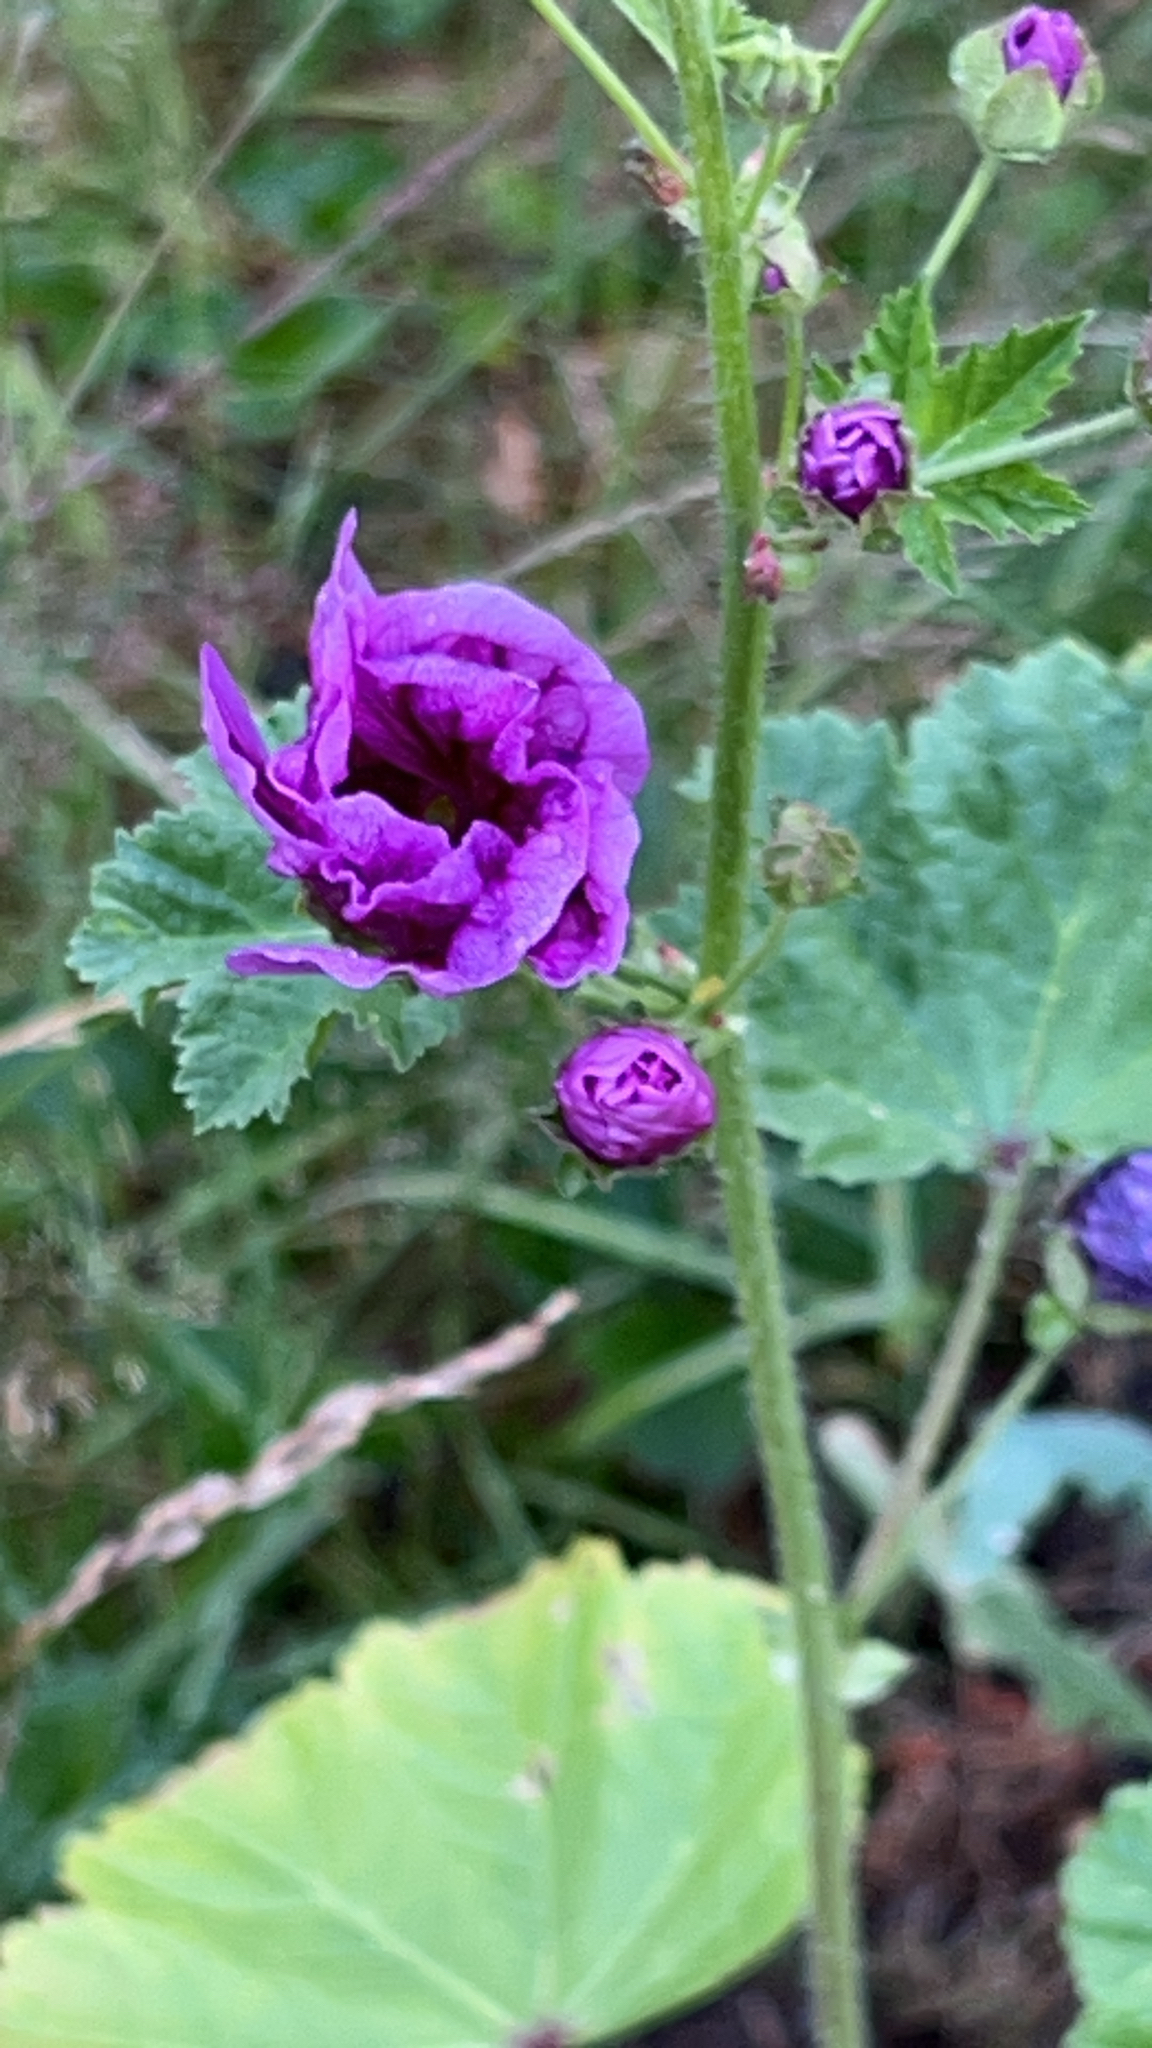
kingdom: Plantae
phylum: Tracheophyta
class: Magnoliopsida
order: Malvales
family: Malvaceae
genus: Malva
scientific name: Malva sylvestris
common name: Common mallow
